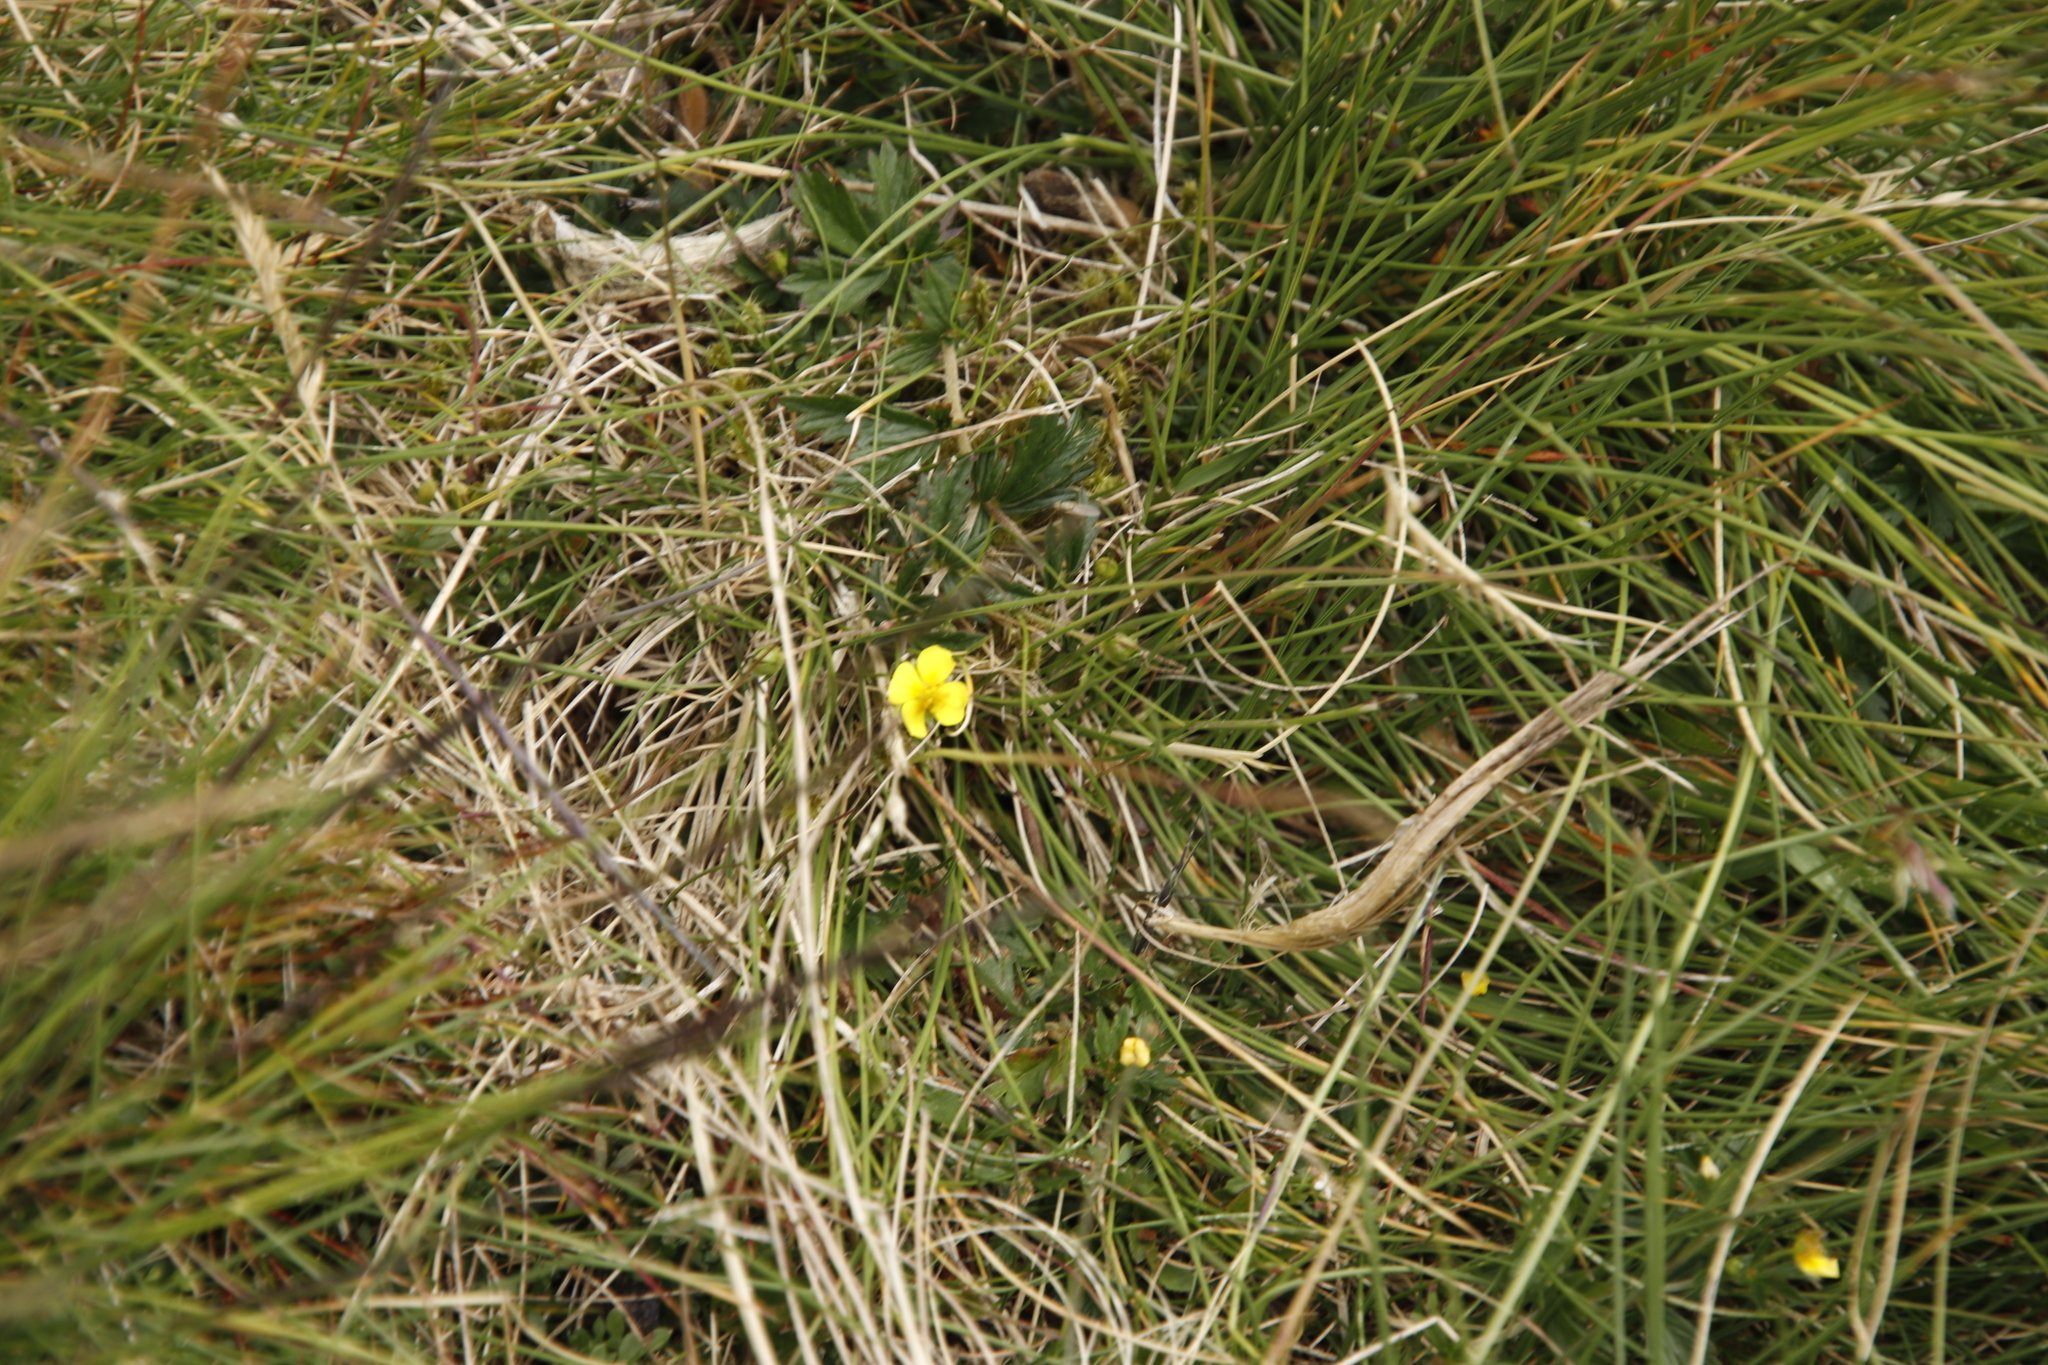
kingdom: Plantae
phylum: Tracheophyta
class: Magnoliopsida
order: Rosales
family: Rosaceae
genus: Potentilla
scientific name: Potentilla erecta
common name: Tormentil
